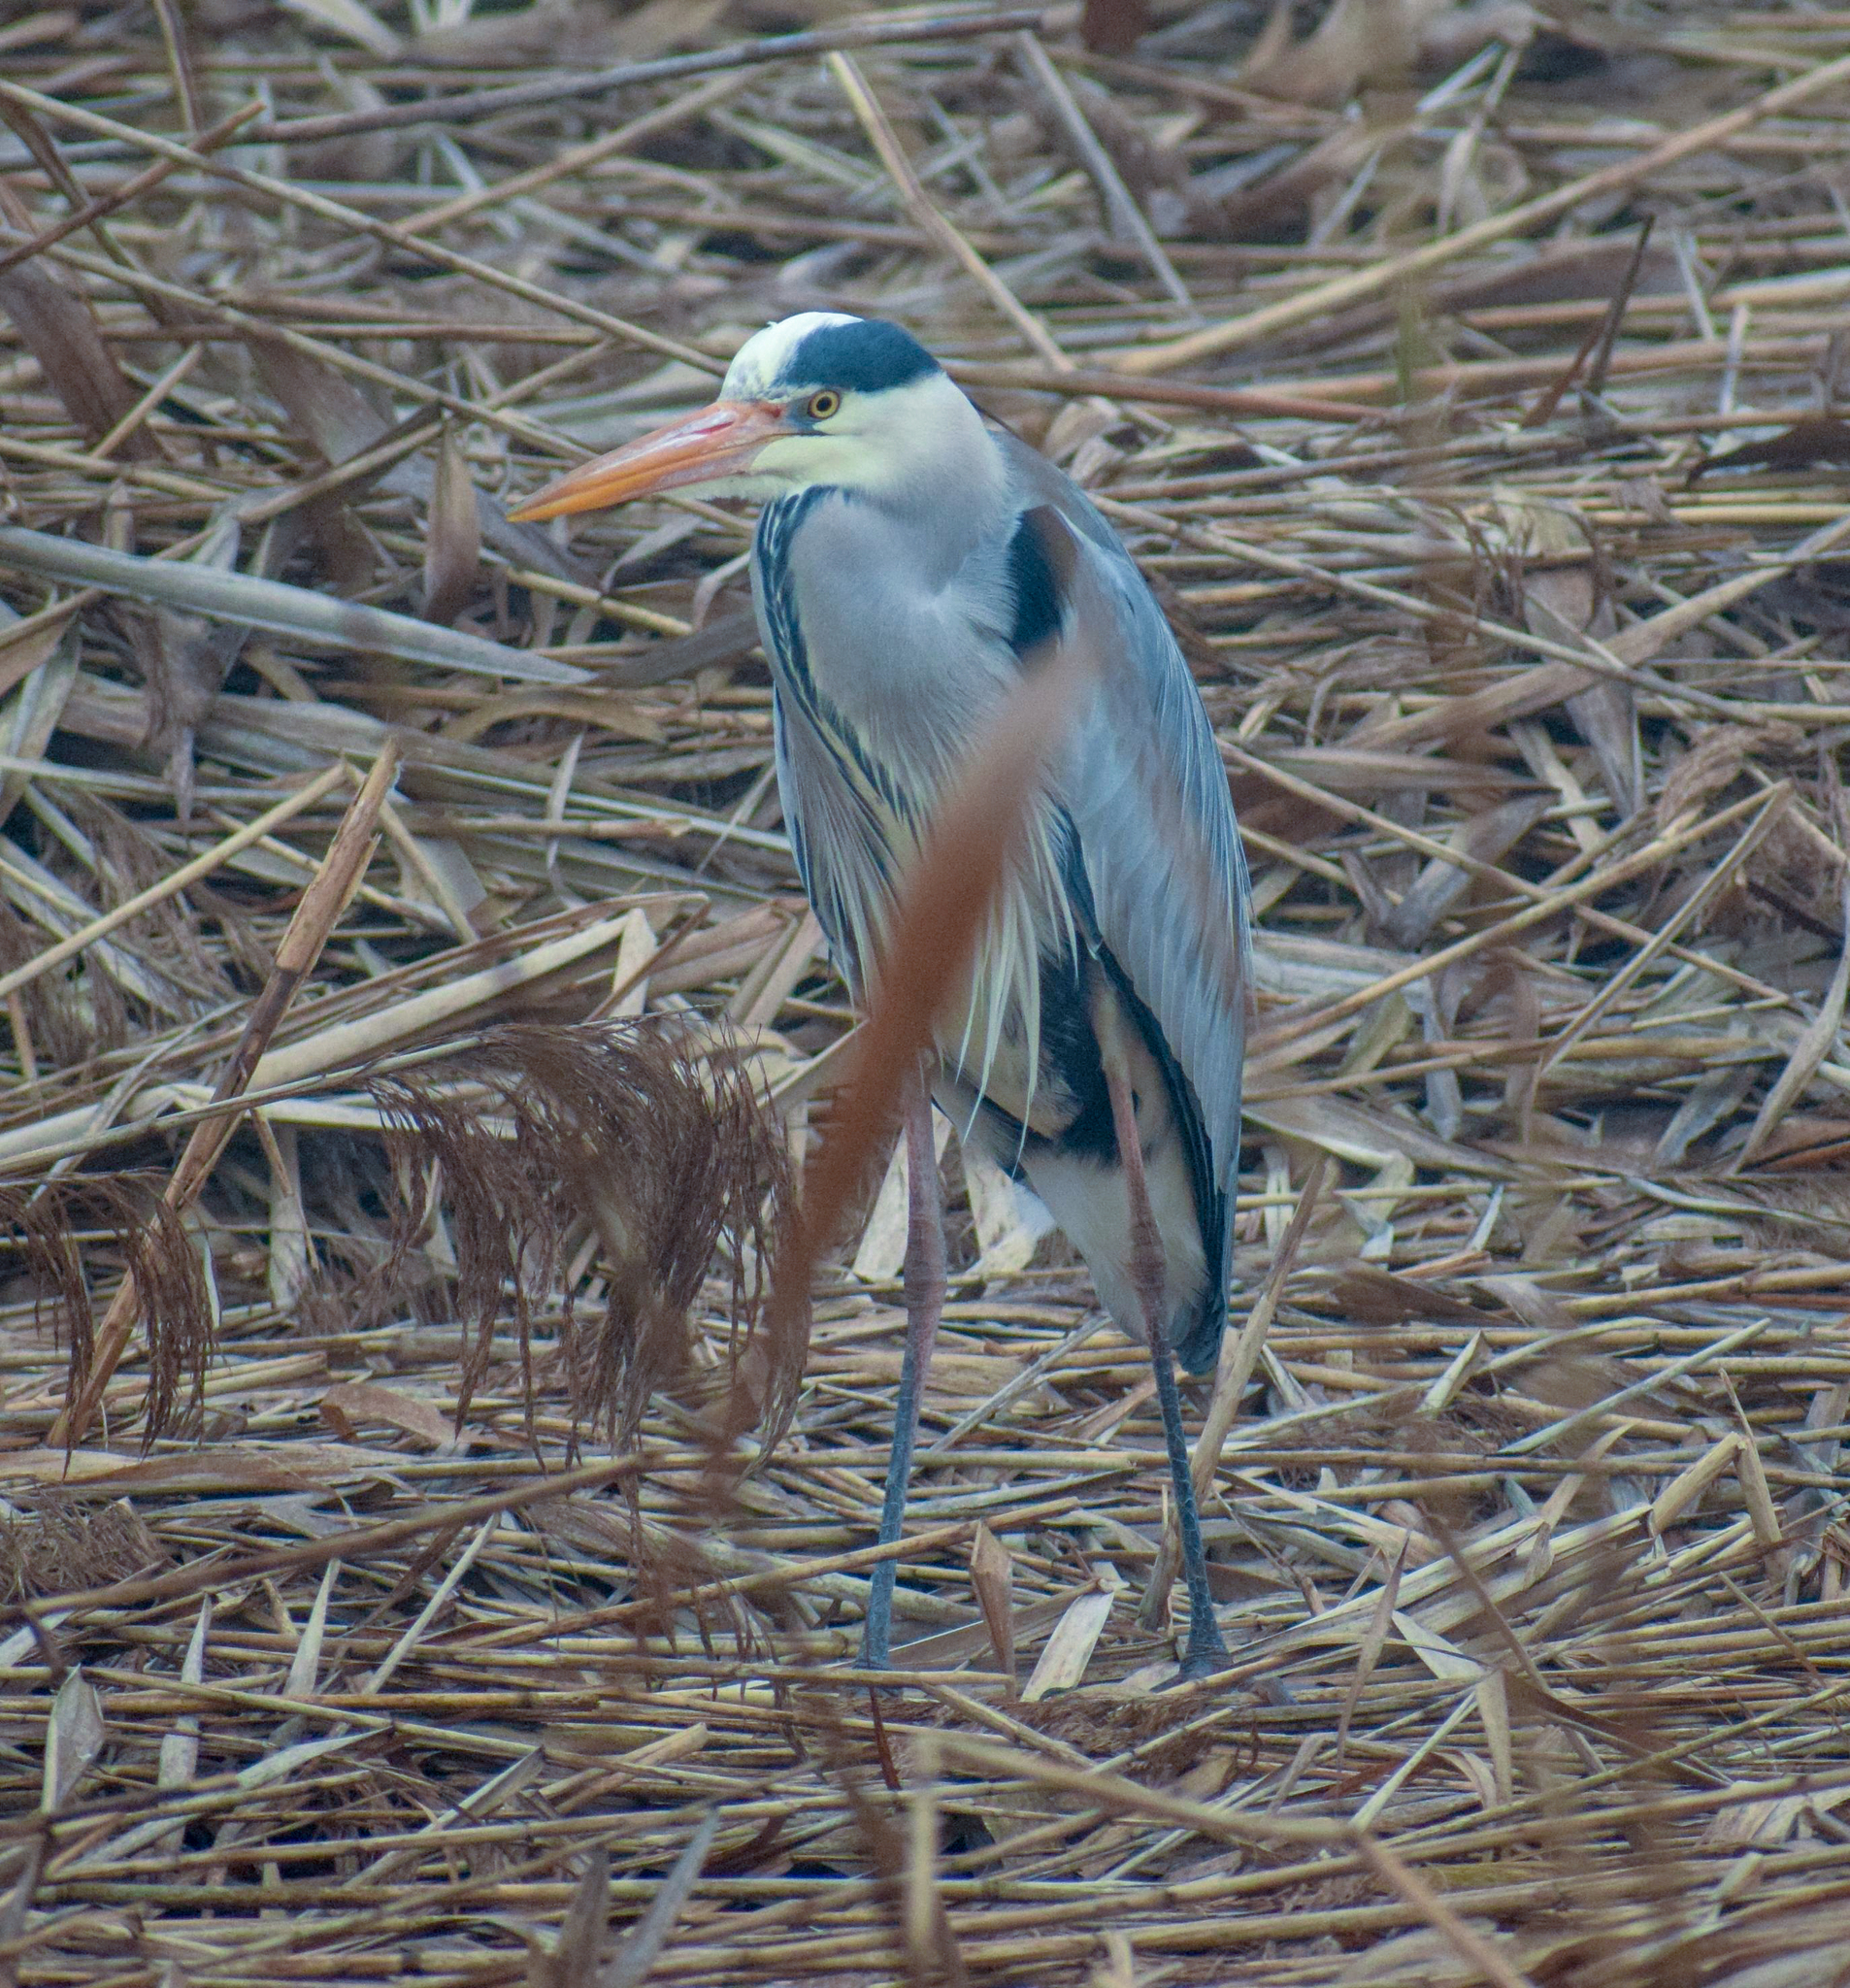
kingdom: Animalia
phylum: Chordata
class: Aves
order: Pelecaniformes
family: Ardeidae
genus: Ardea
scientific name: Ardea cinerea
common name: Grey heron
